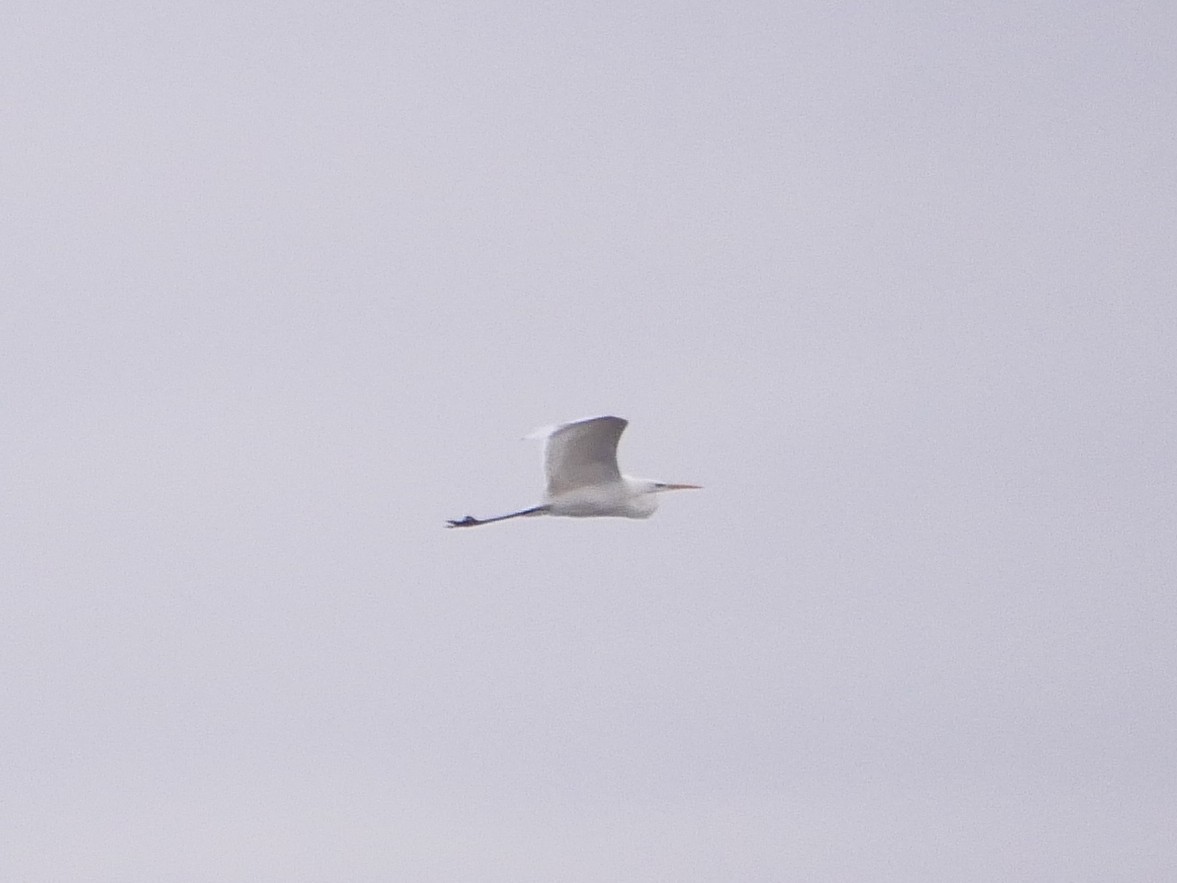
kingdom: Animalia
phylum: Chordata
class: Aves
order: Pelecaniformes
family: Ardeidae
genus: Ardea
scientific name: Ardea alba
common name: Great egret
